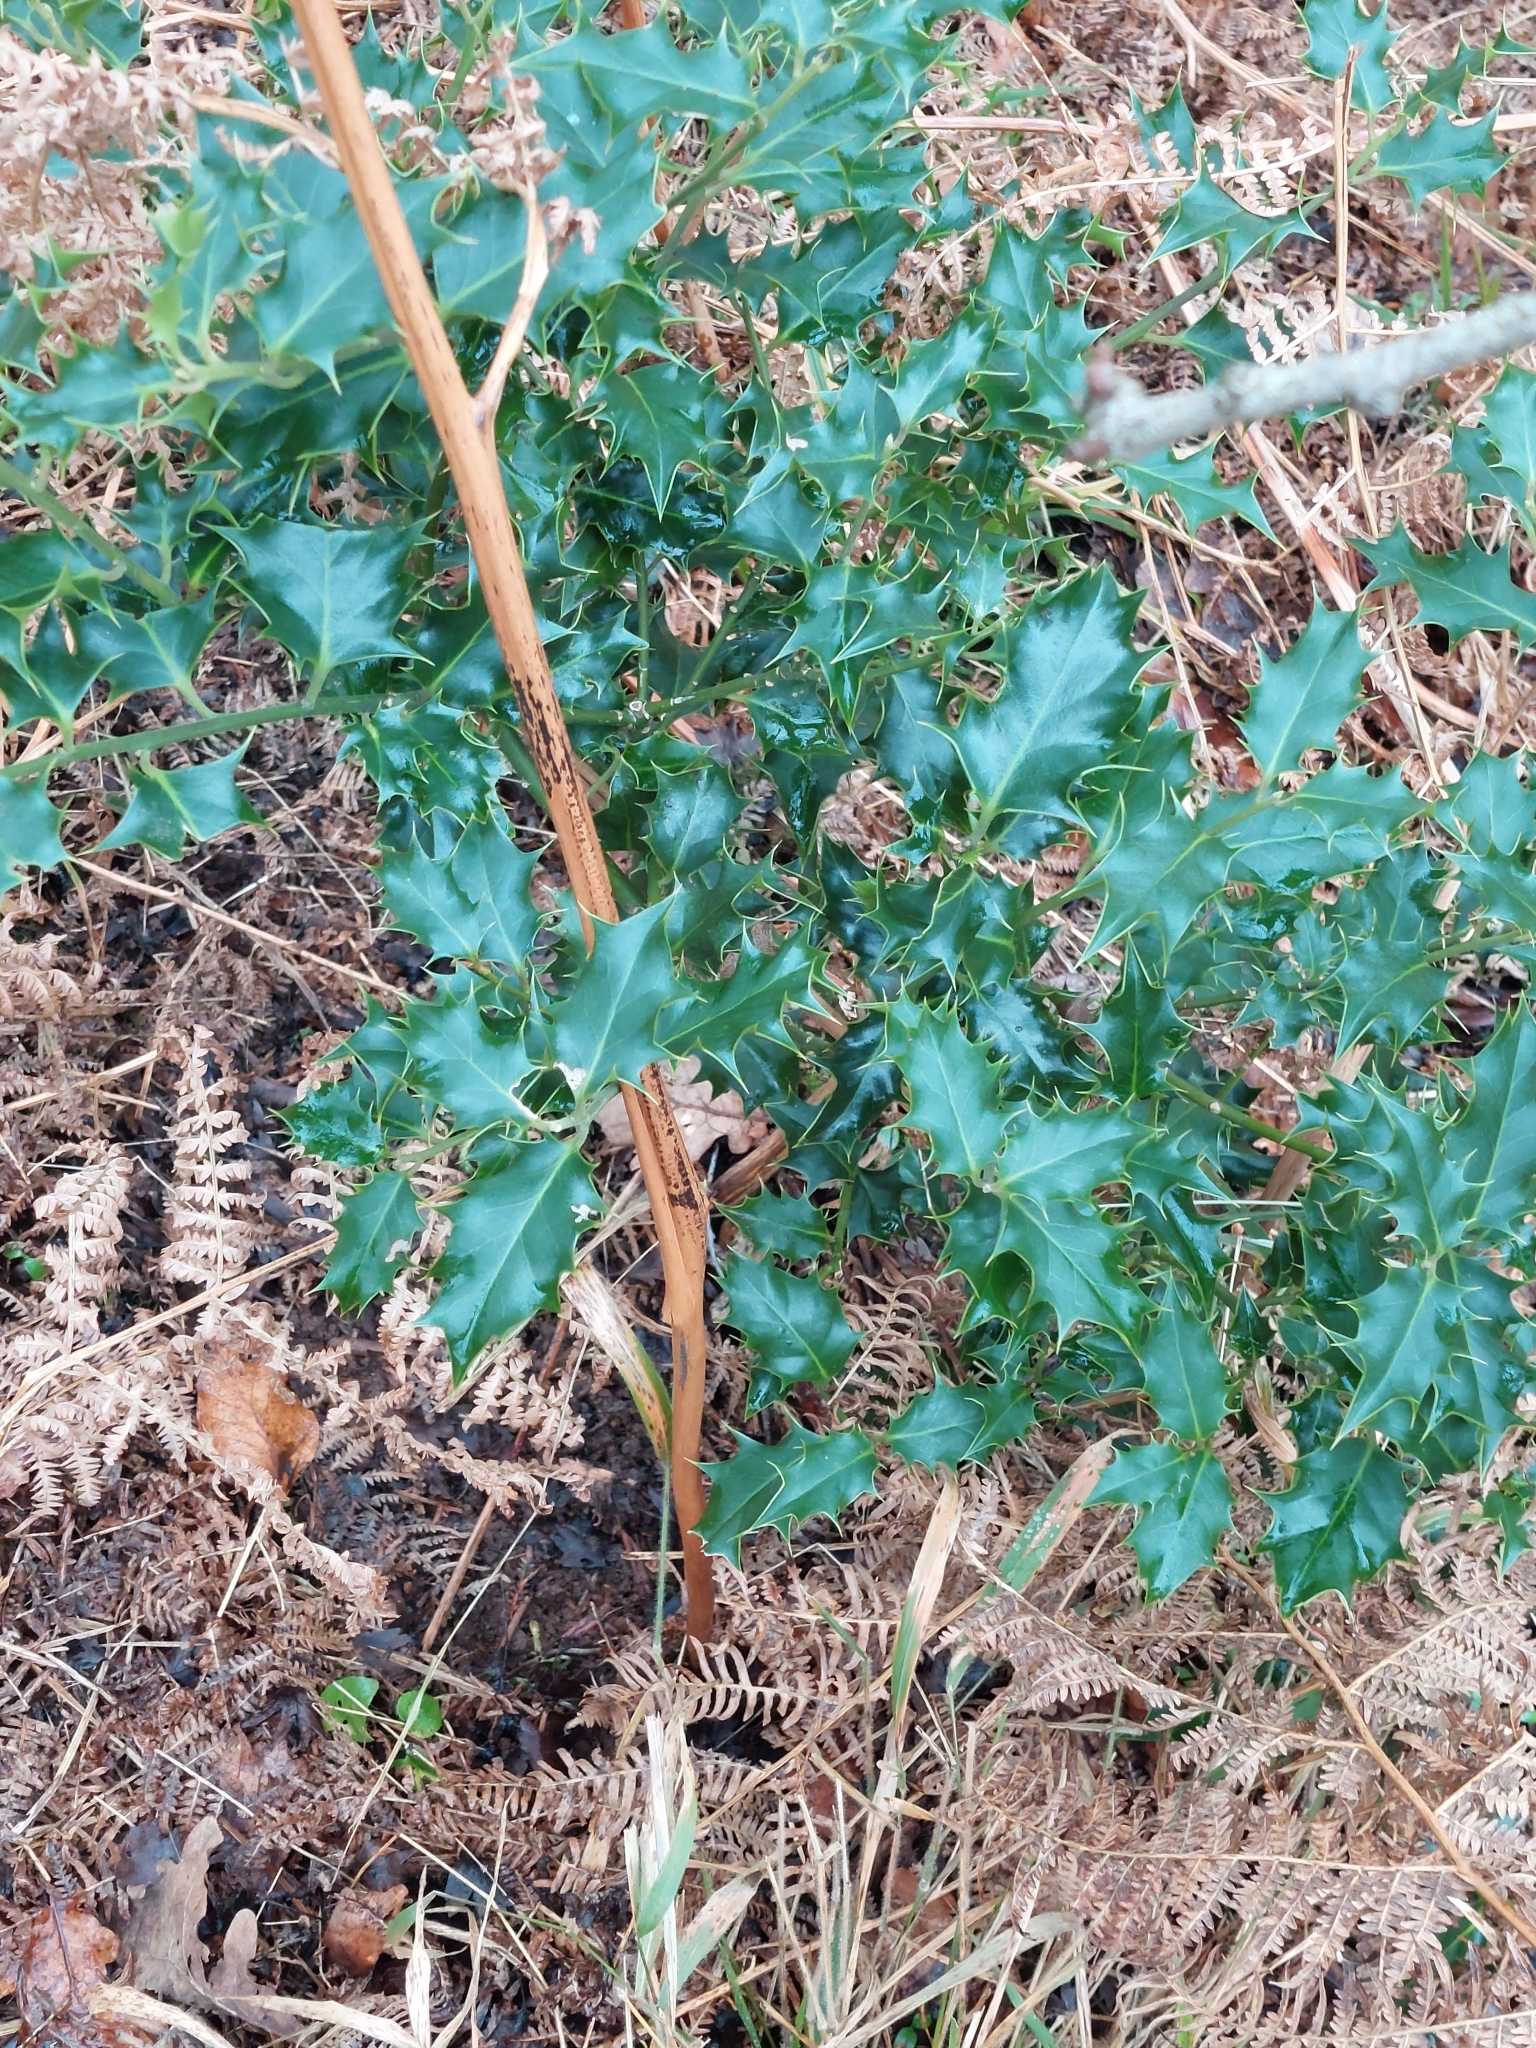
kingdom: Plantae
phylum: Tracheophyta
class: Magnoliopsida
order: Aquifoliales
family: Aquifoliaceae
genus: Ilex
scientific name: Ilex aquifolium
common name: English holly
